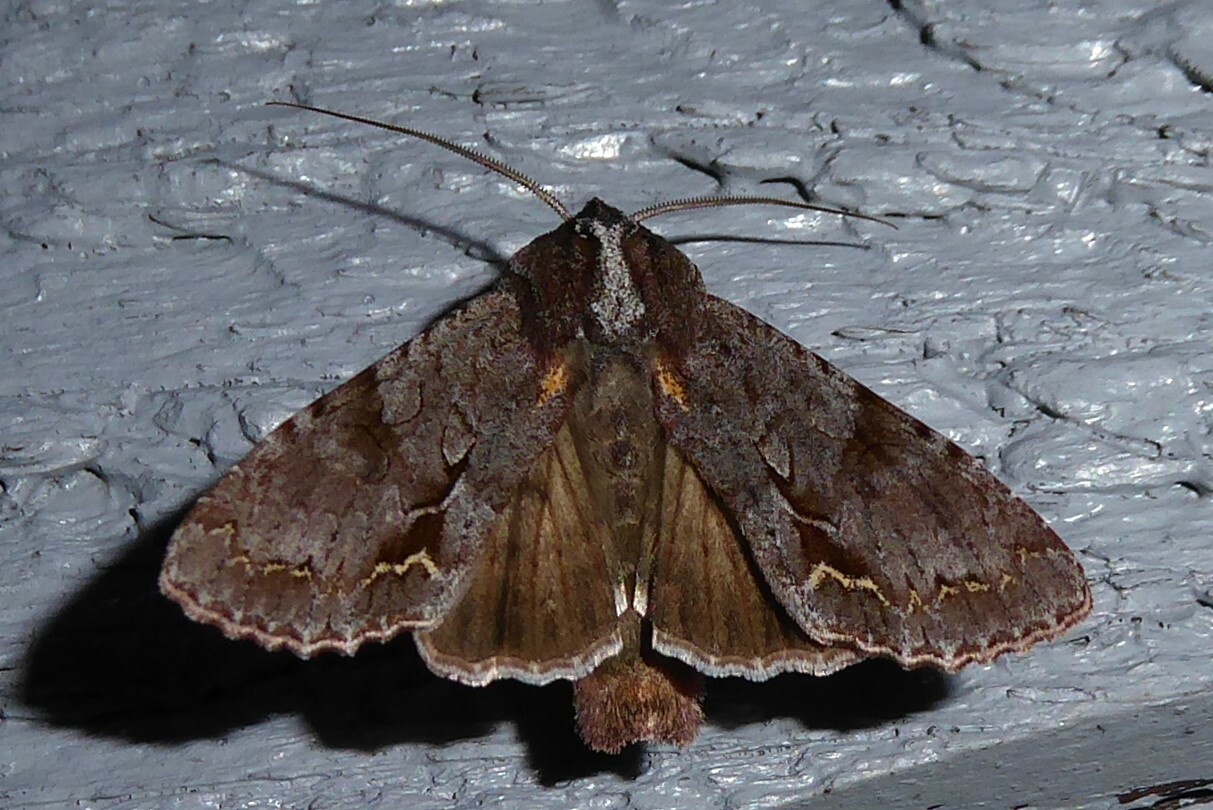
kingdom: Animalia
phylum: Arthropoda
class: Insecta
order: Lepidoptera
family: Noctuidae
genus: Ichneutica
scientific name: Ichneutica
